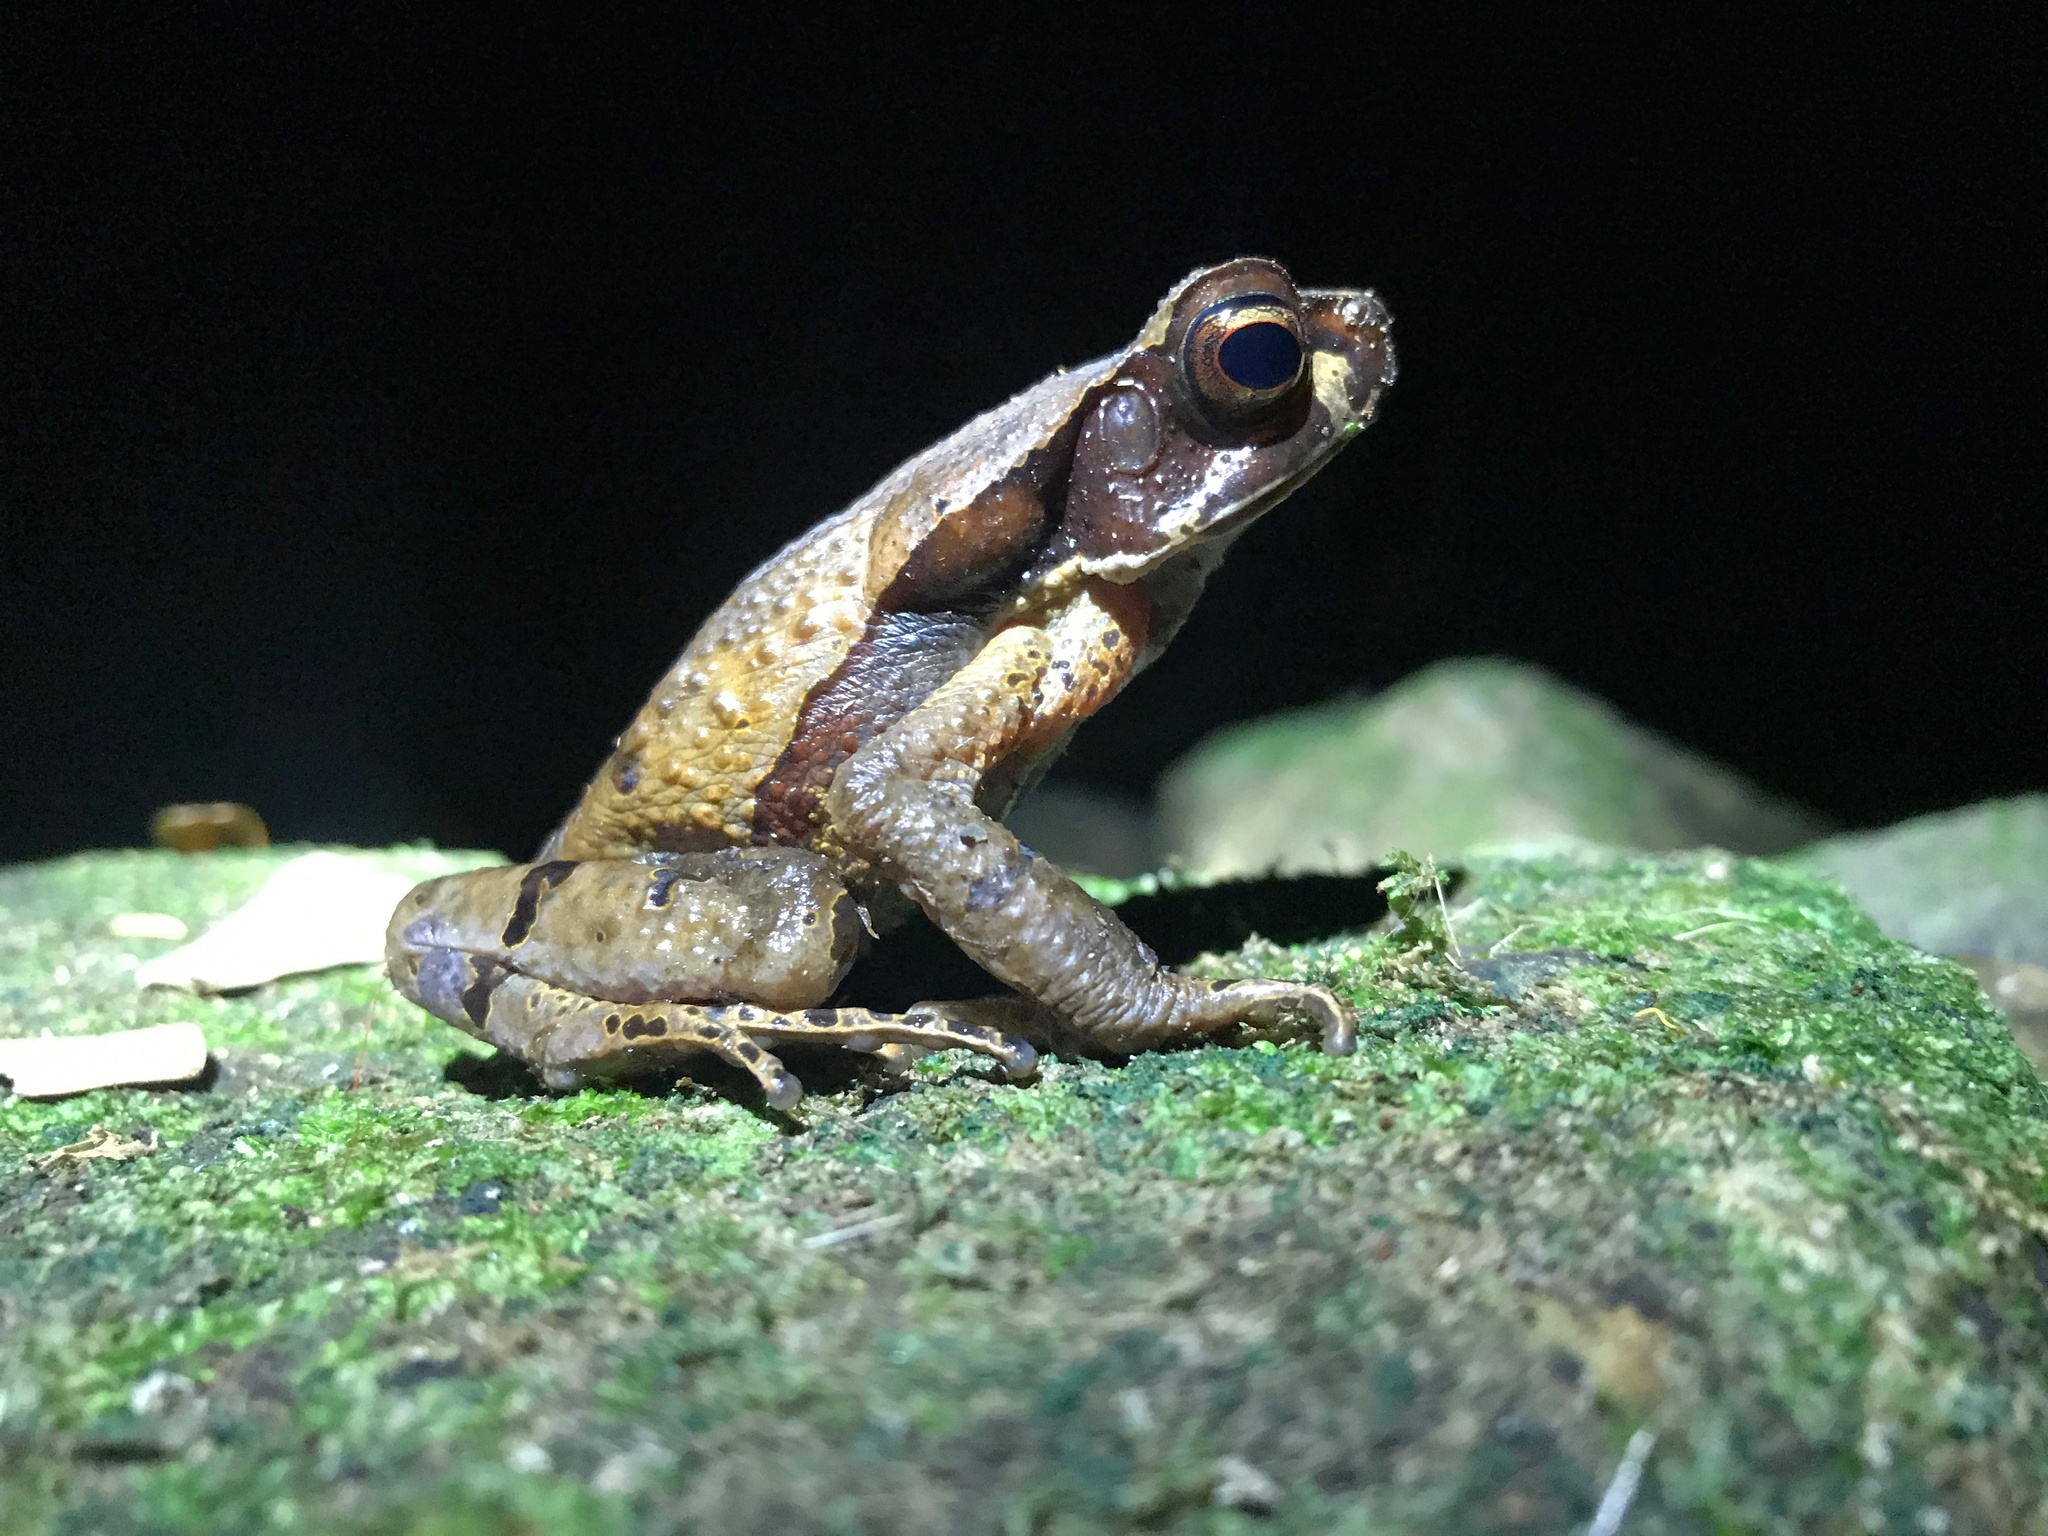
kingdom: Animalia
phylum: Chordata
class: Amphibia
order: Anura
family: Bufonidae
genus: Rhaebo
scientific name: Rhaebo haematiticus
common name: Truando toad
